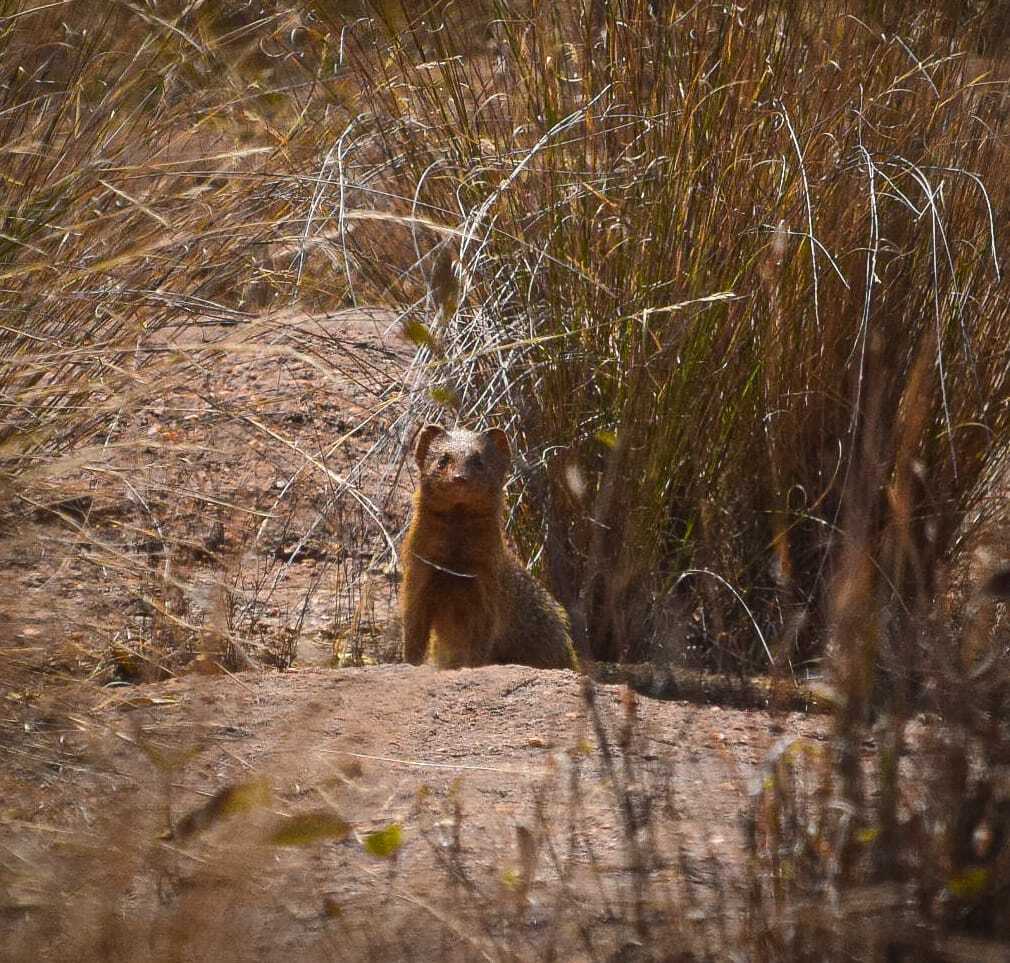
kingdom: Animalia
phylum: Chordata
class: Mammalia
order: Carnivora
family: Herpestidae
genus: Galerella
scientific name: Galerella sanguinea
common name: Slender mongoose
